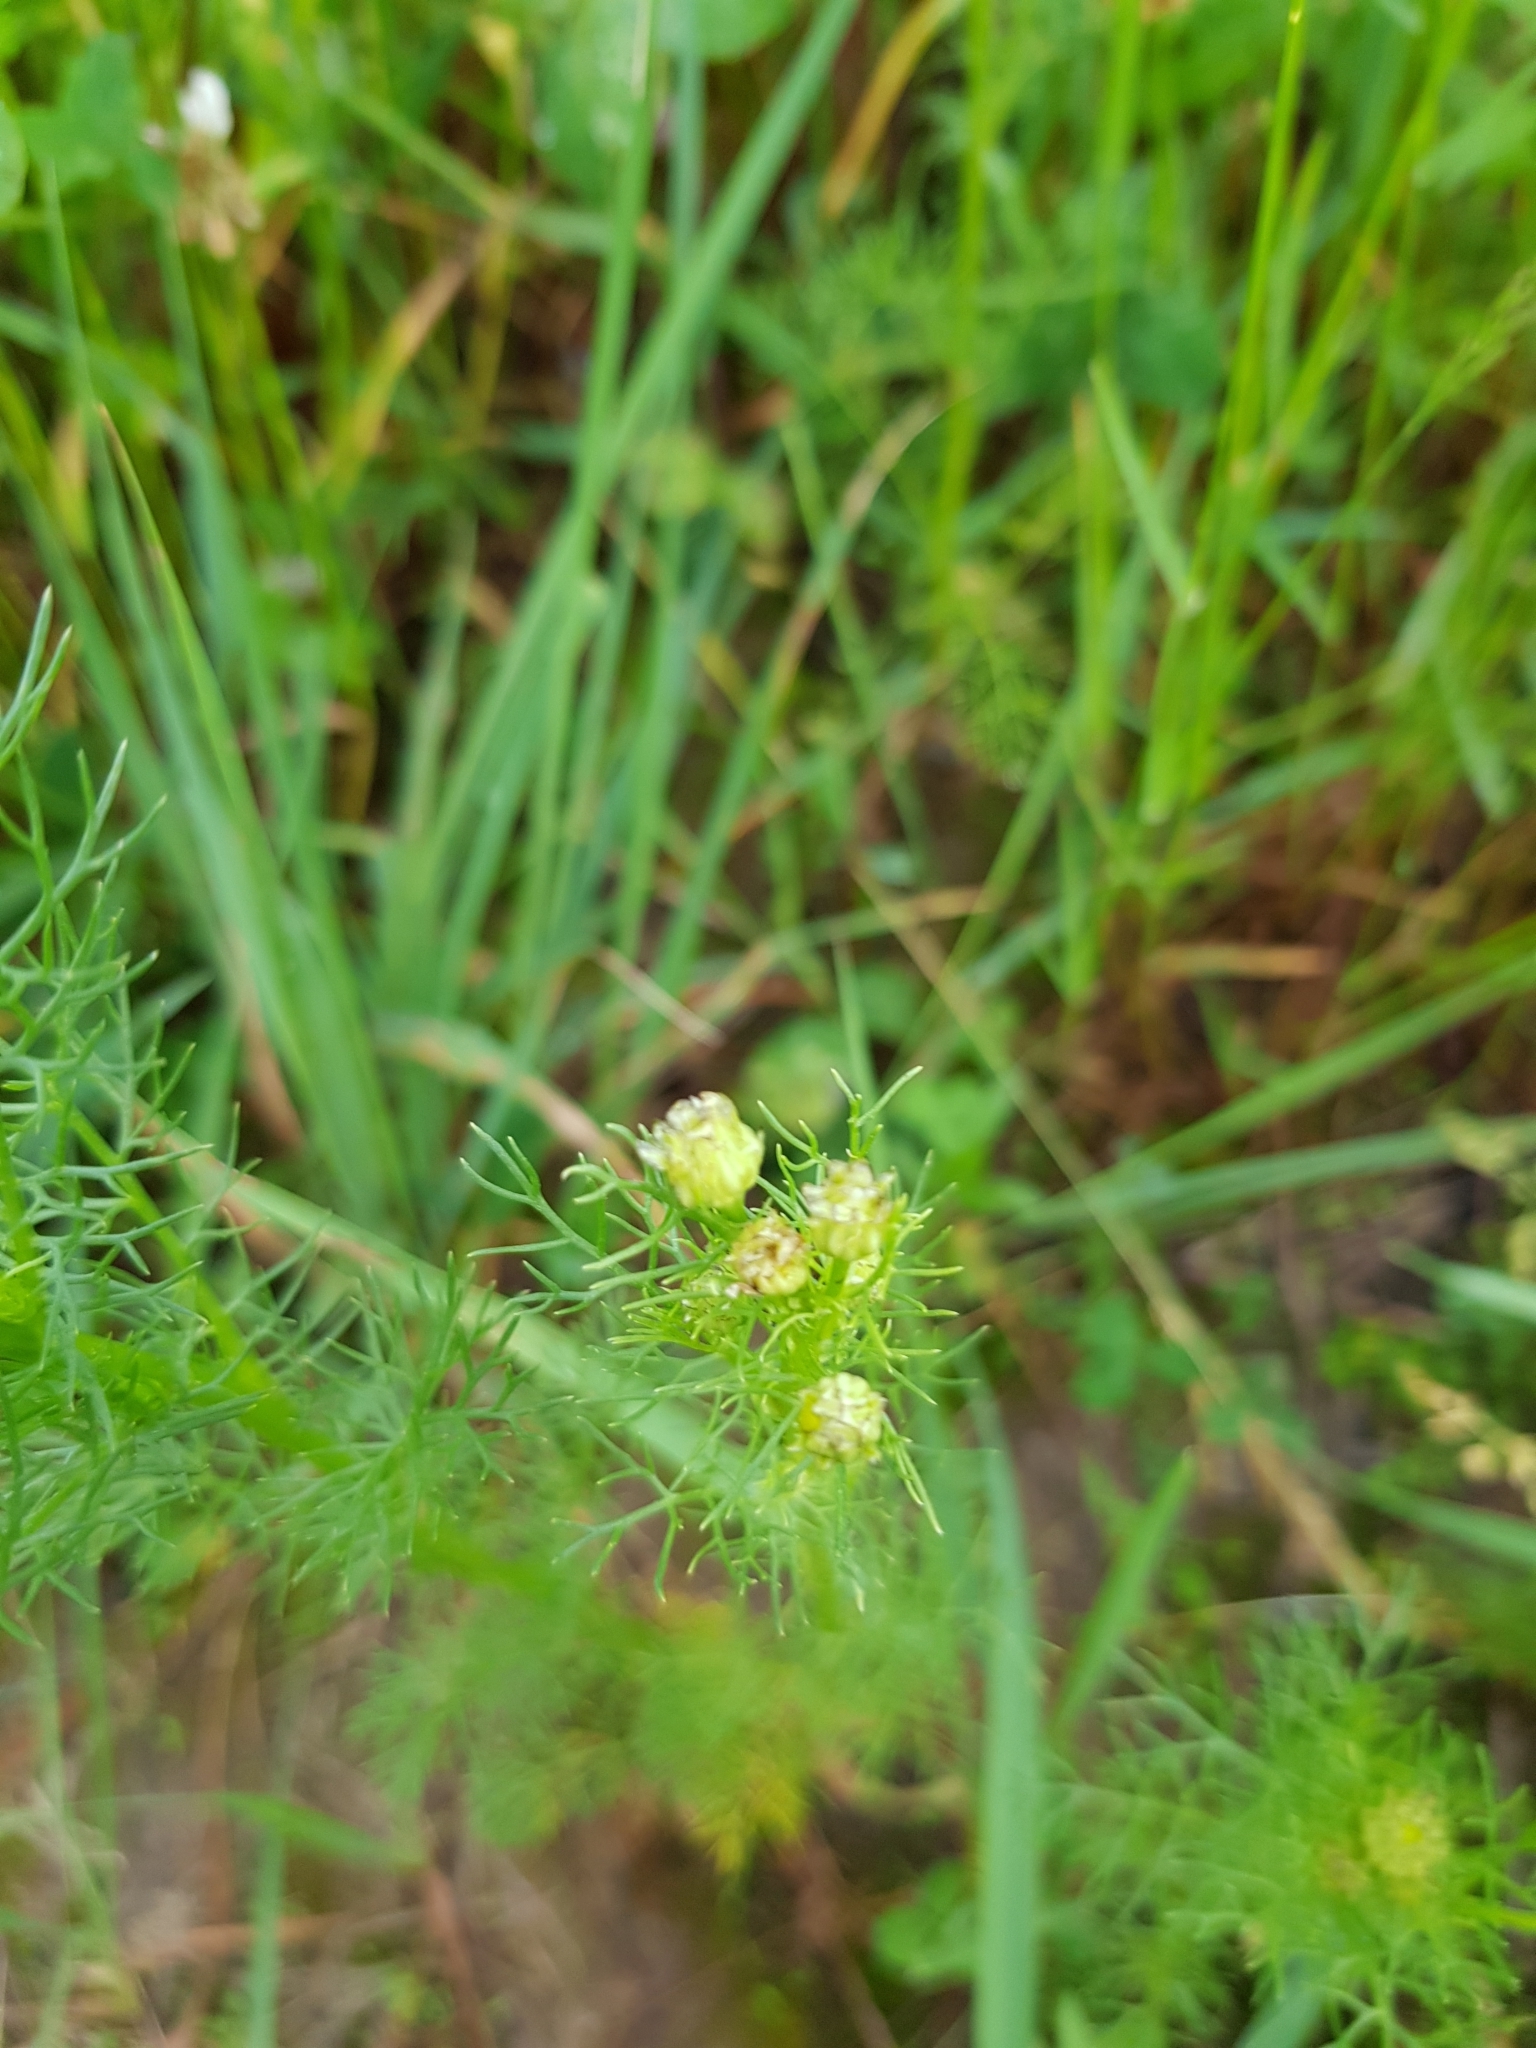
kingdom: Plantae
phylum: Tracheophyta
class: Magnoliopsida
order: Asterales
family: Asteraceae
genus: Tripleurospermum
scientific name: Tripleurospermum inodorum
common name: Scentless mayweed
